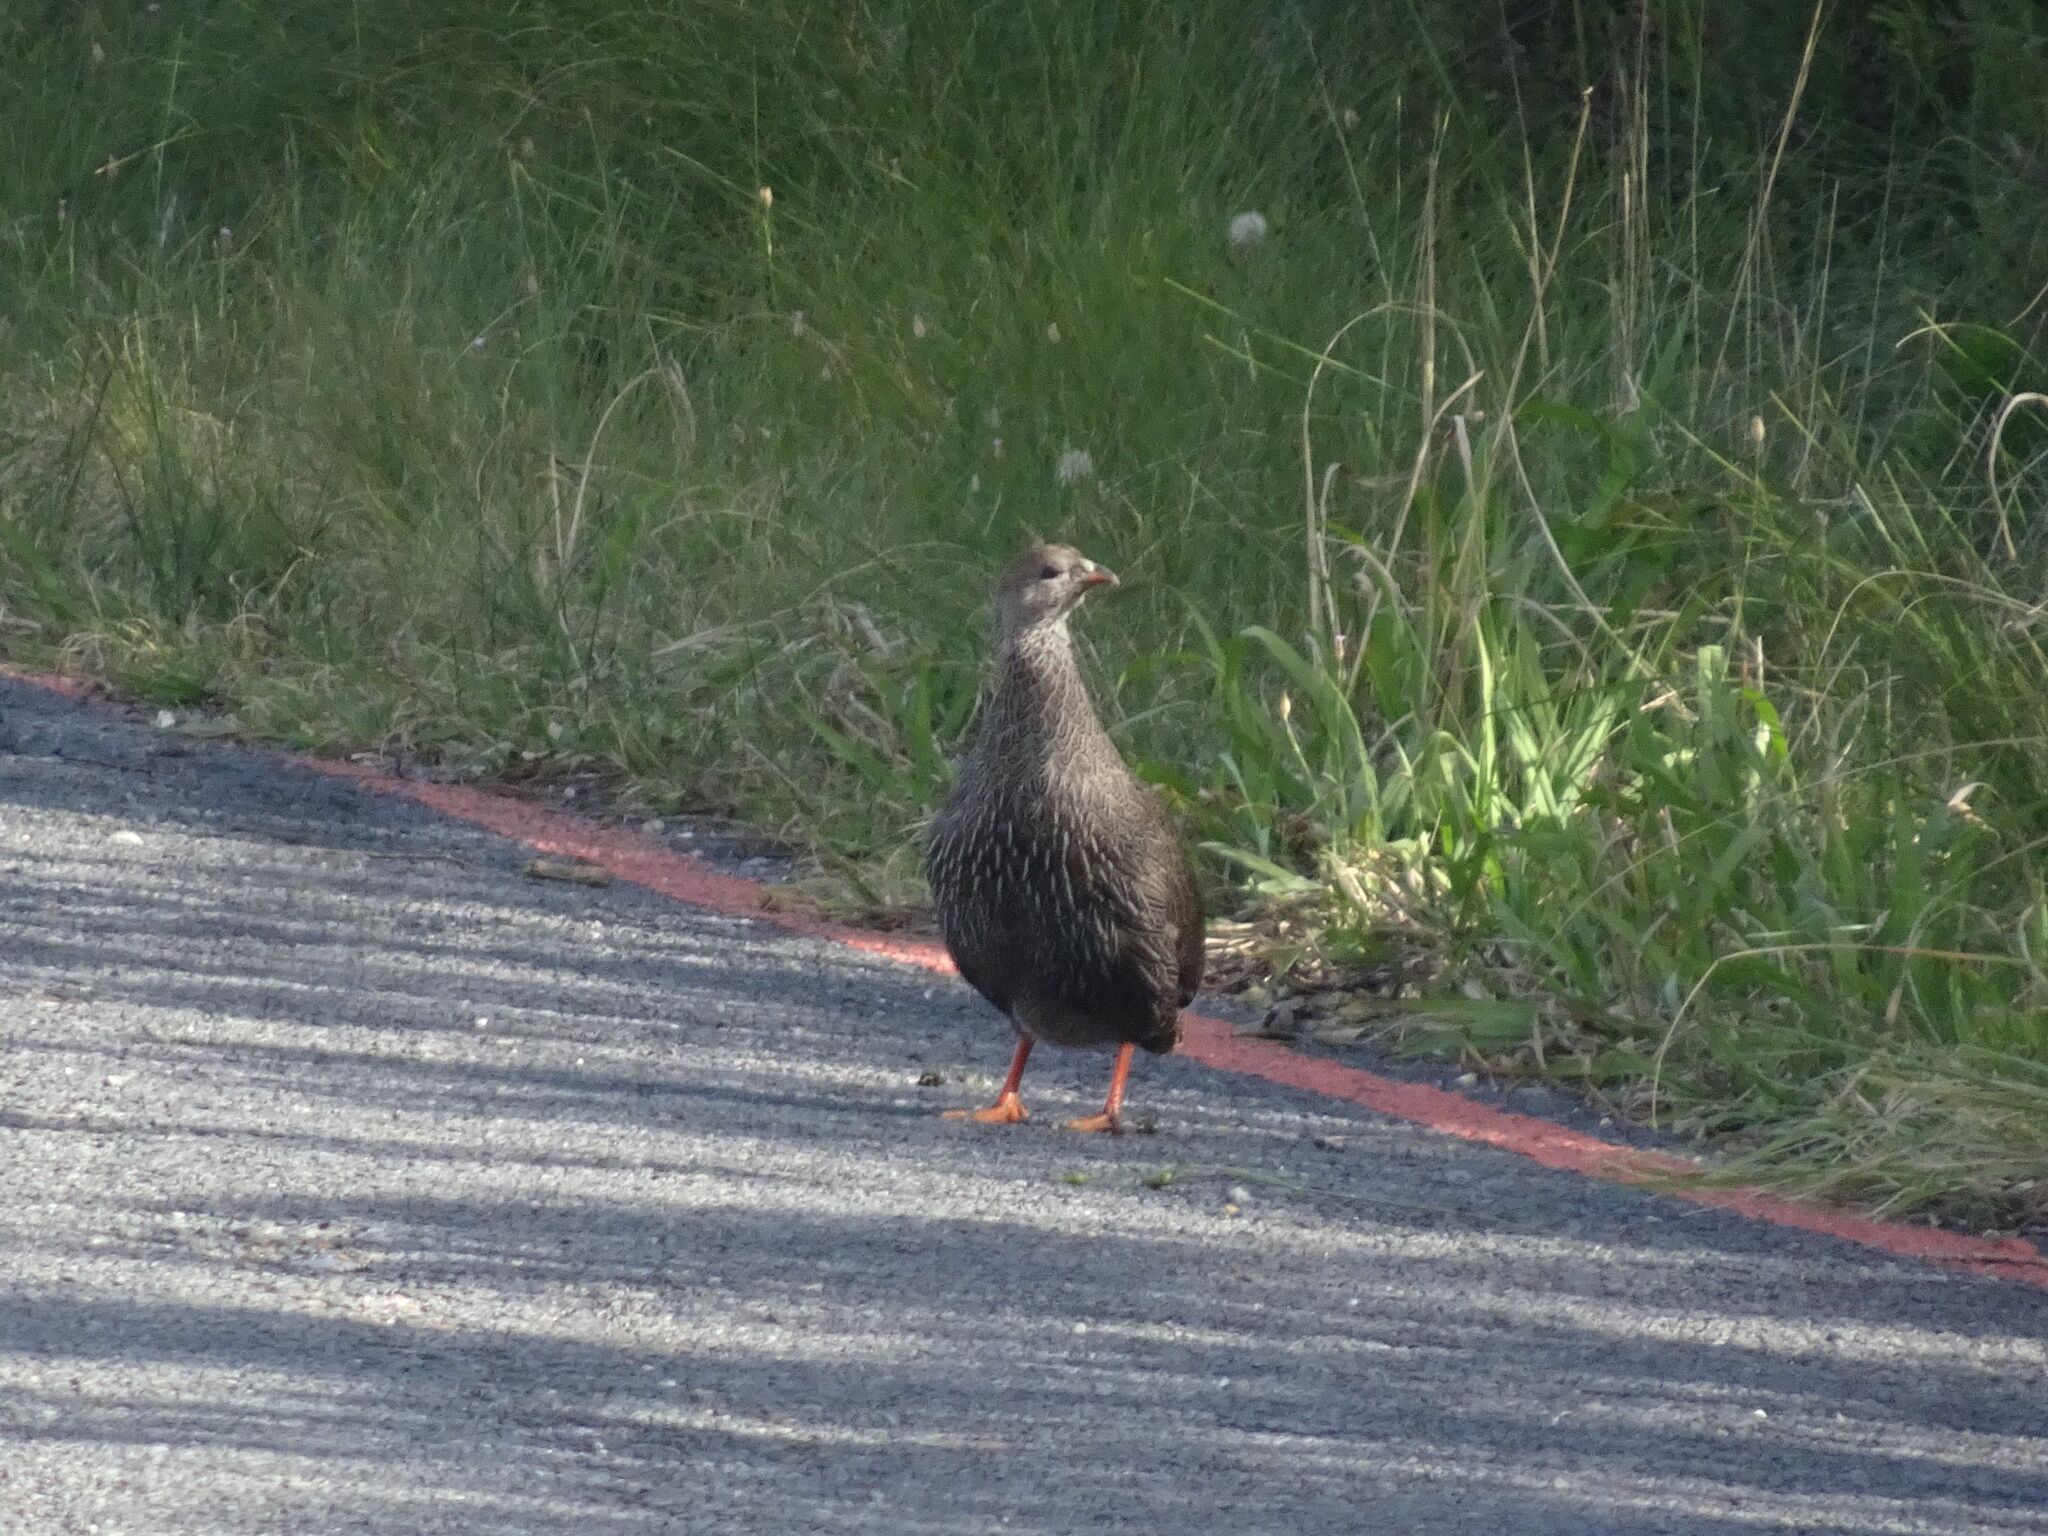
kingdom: Animalia
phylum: Chordata
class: Aves
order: Galliformes
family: Phasianidae
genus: Pternistis
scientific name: Pternistis capensis
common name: Cape spurfowl
